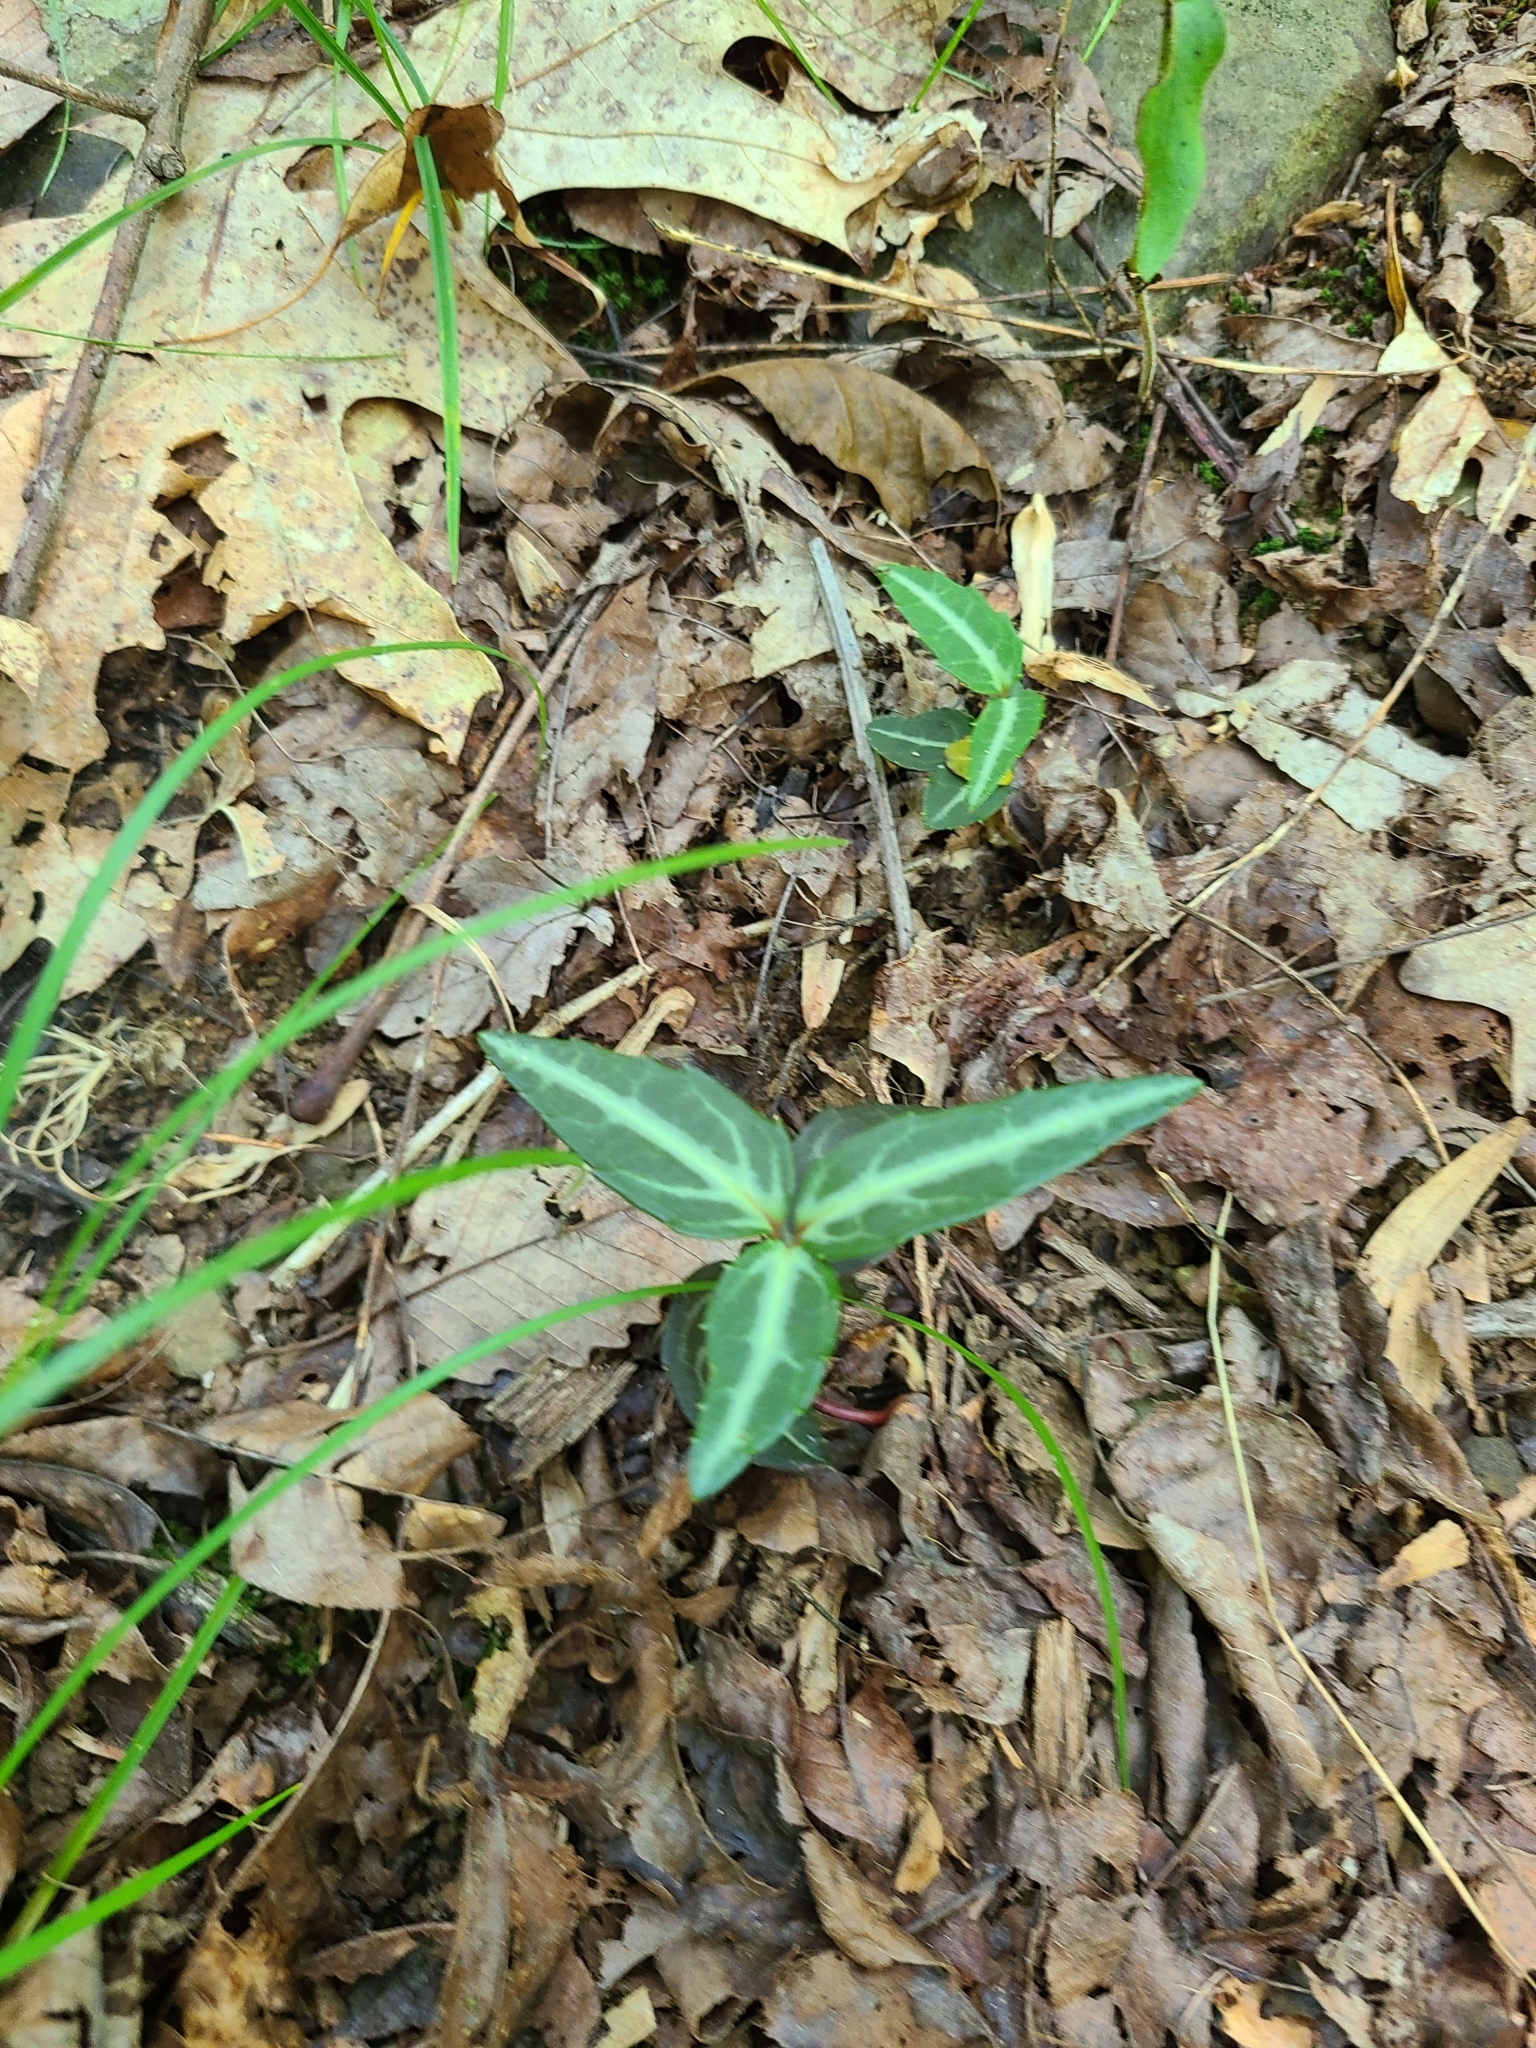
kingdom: Plantae
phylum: Tracheophyta
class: Magnoliopsida
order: Ericales
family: Ericaceae
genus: Chimaphila
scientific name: Chimaphila maculata
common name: Spotted pipsissewa
